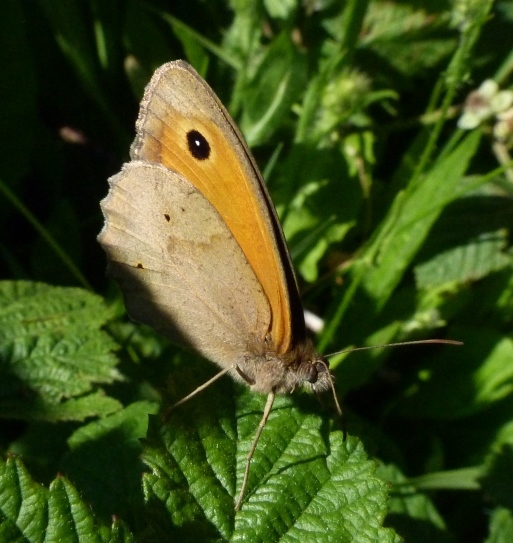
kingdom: Animalia
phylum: Arthropoda
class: Insecta
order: Lepidoptera
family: Nymphalidae
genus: Maniola
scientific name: Maniola jurtina
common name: Meadow brown
